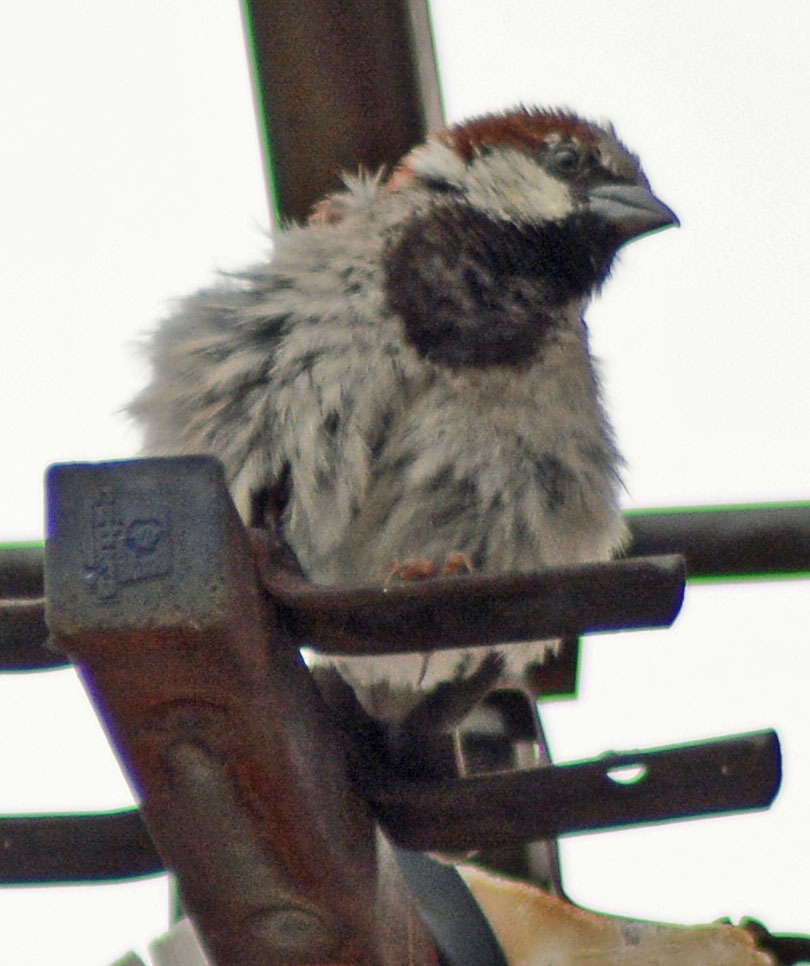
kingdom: Animalia
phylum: Chordata
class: Aves
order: Passeriformes
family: Passeridae
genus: Passer
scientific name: Passer domesticus
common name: House sparrow
